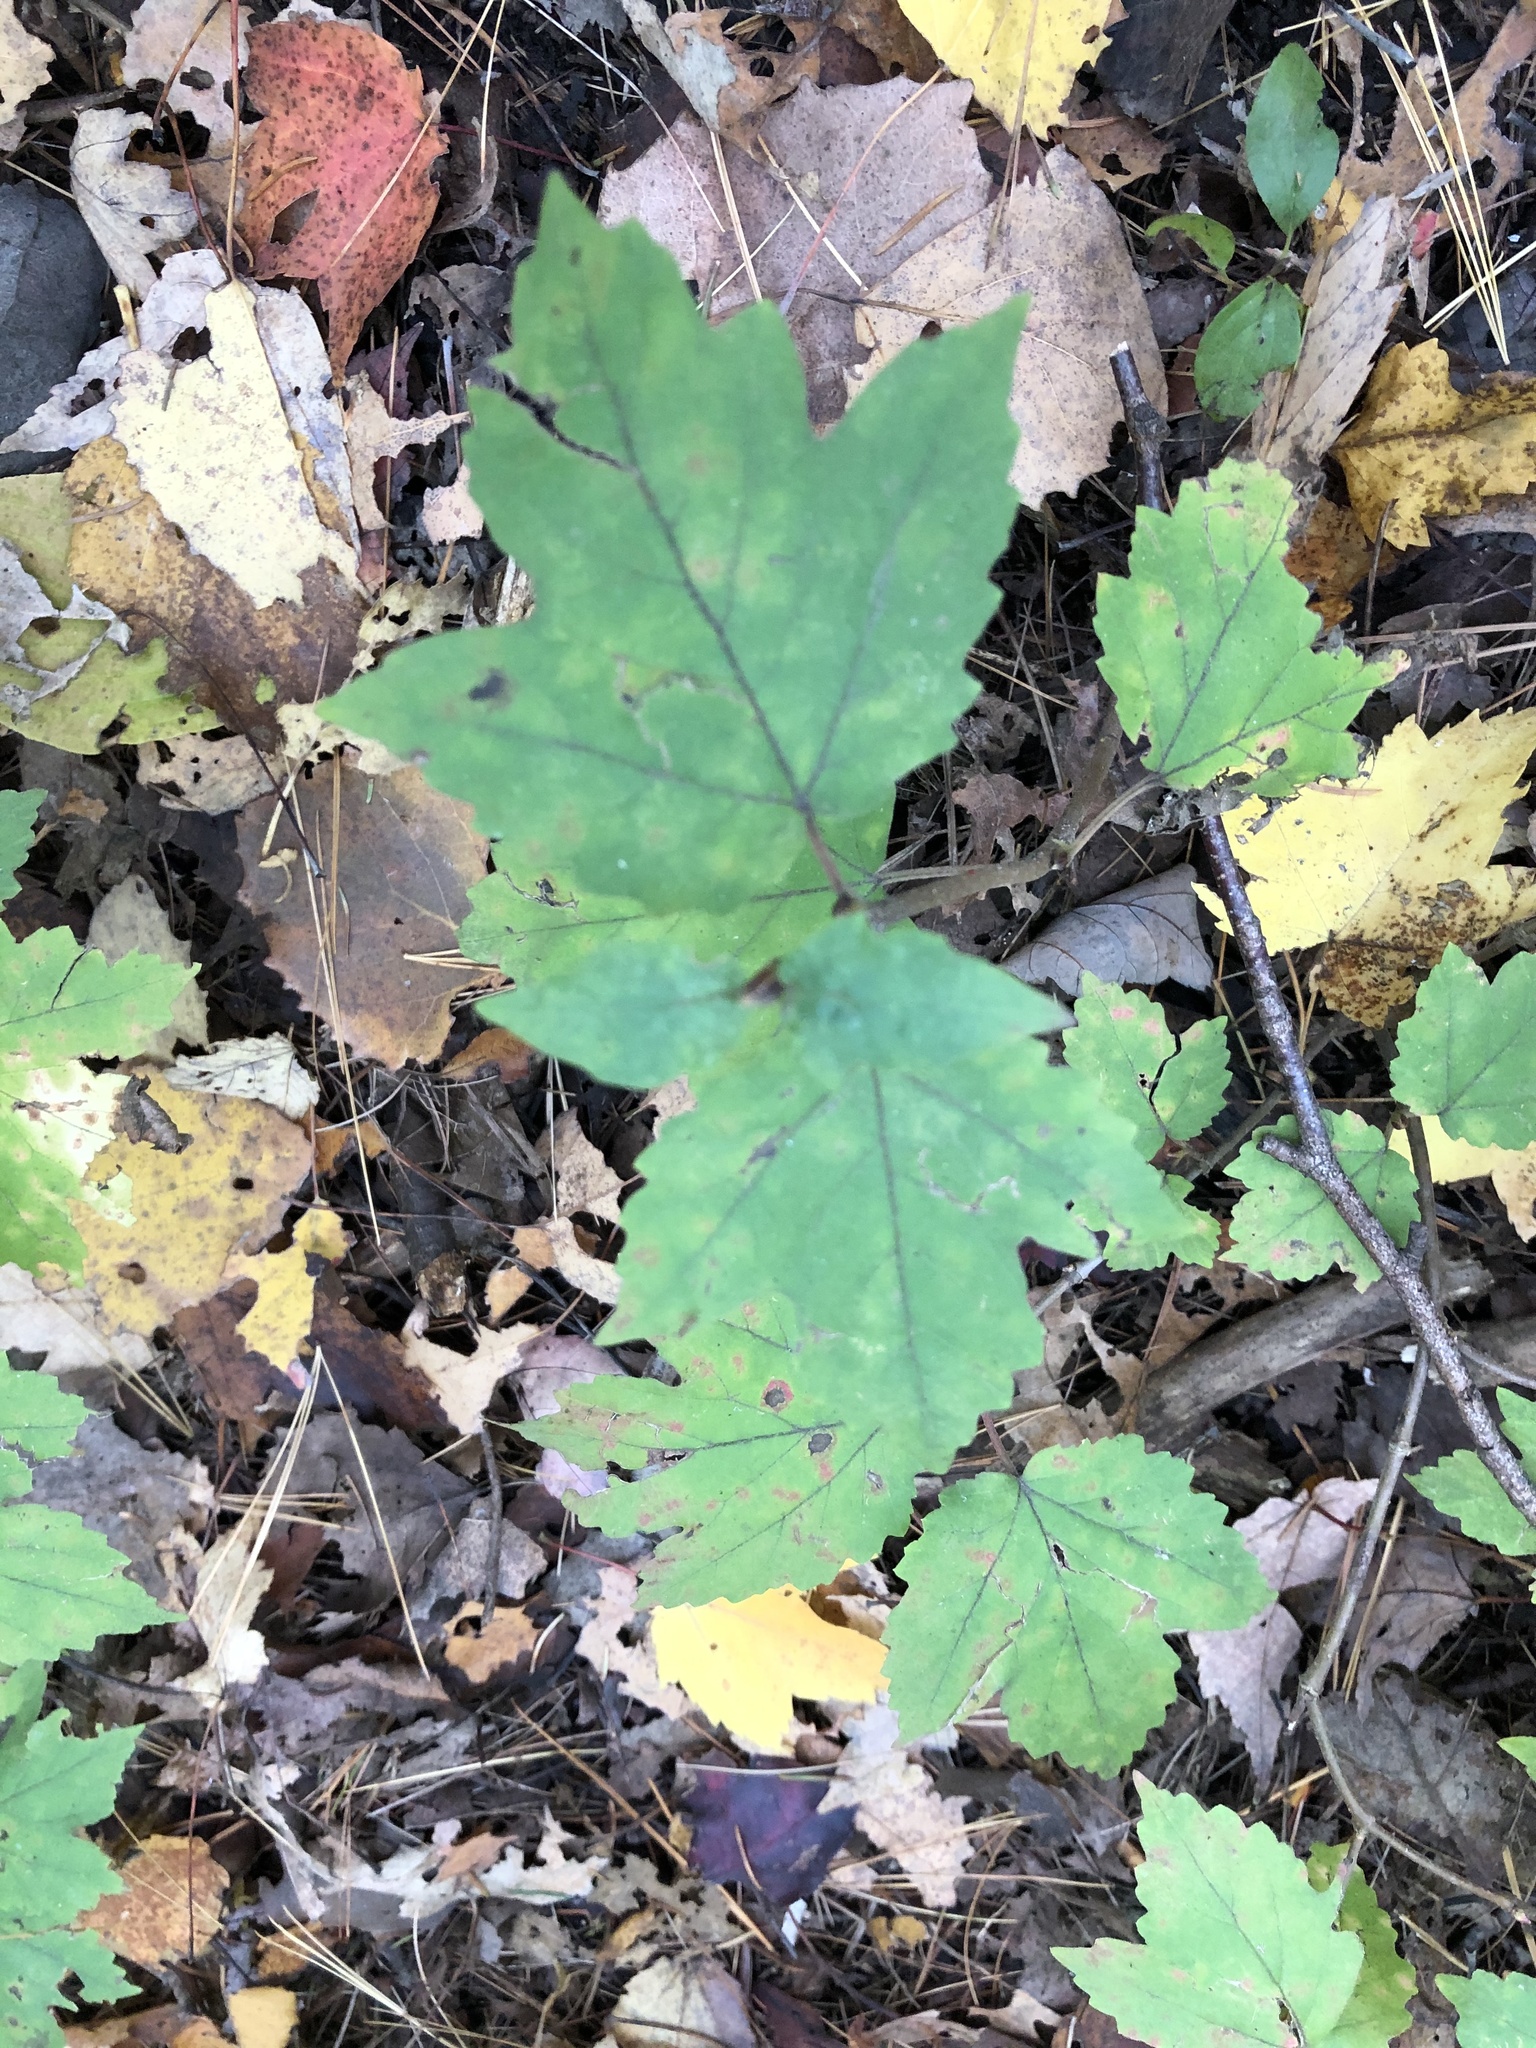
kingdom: Plantae
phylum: Tracheophyta
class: Magnoliopsida
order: Dipsacales
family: Viburnaceae
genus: Viburnum
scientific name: Viburnum acerifolium
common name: Dockmackie
